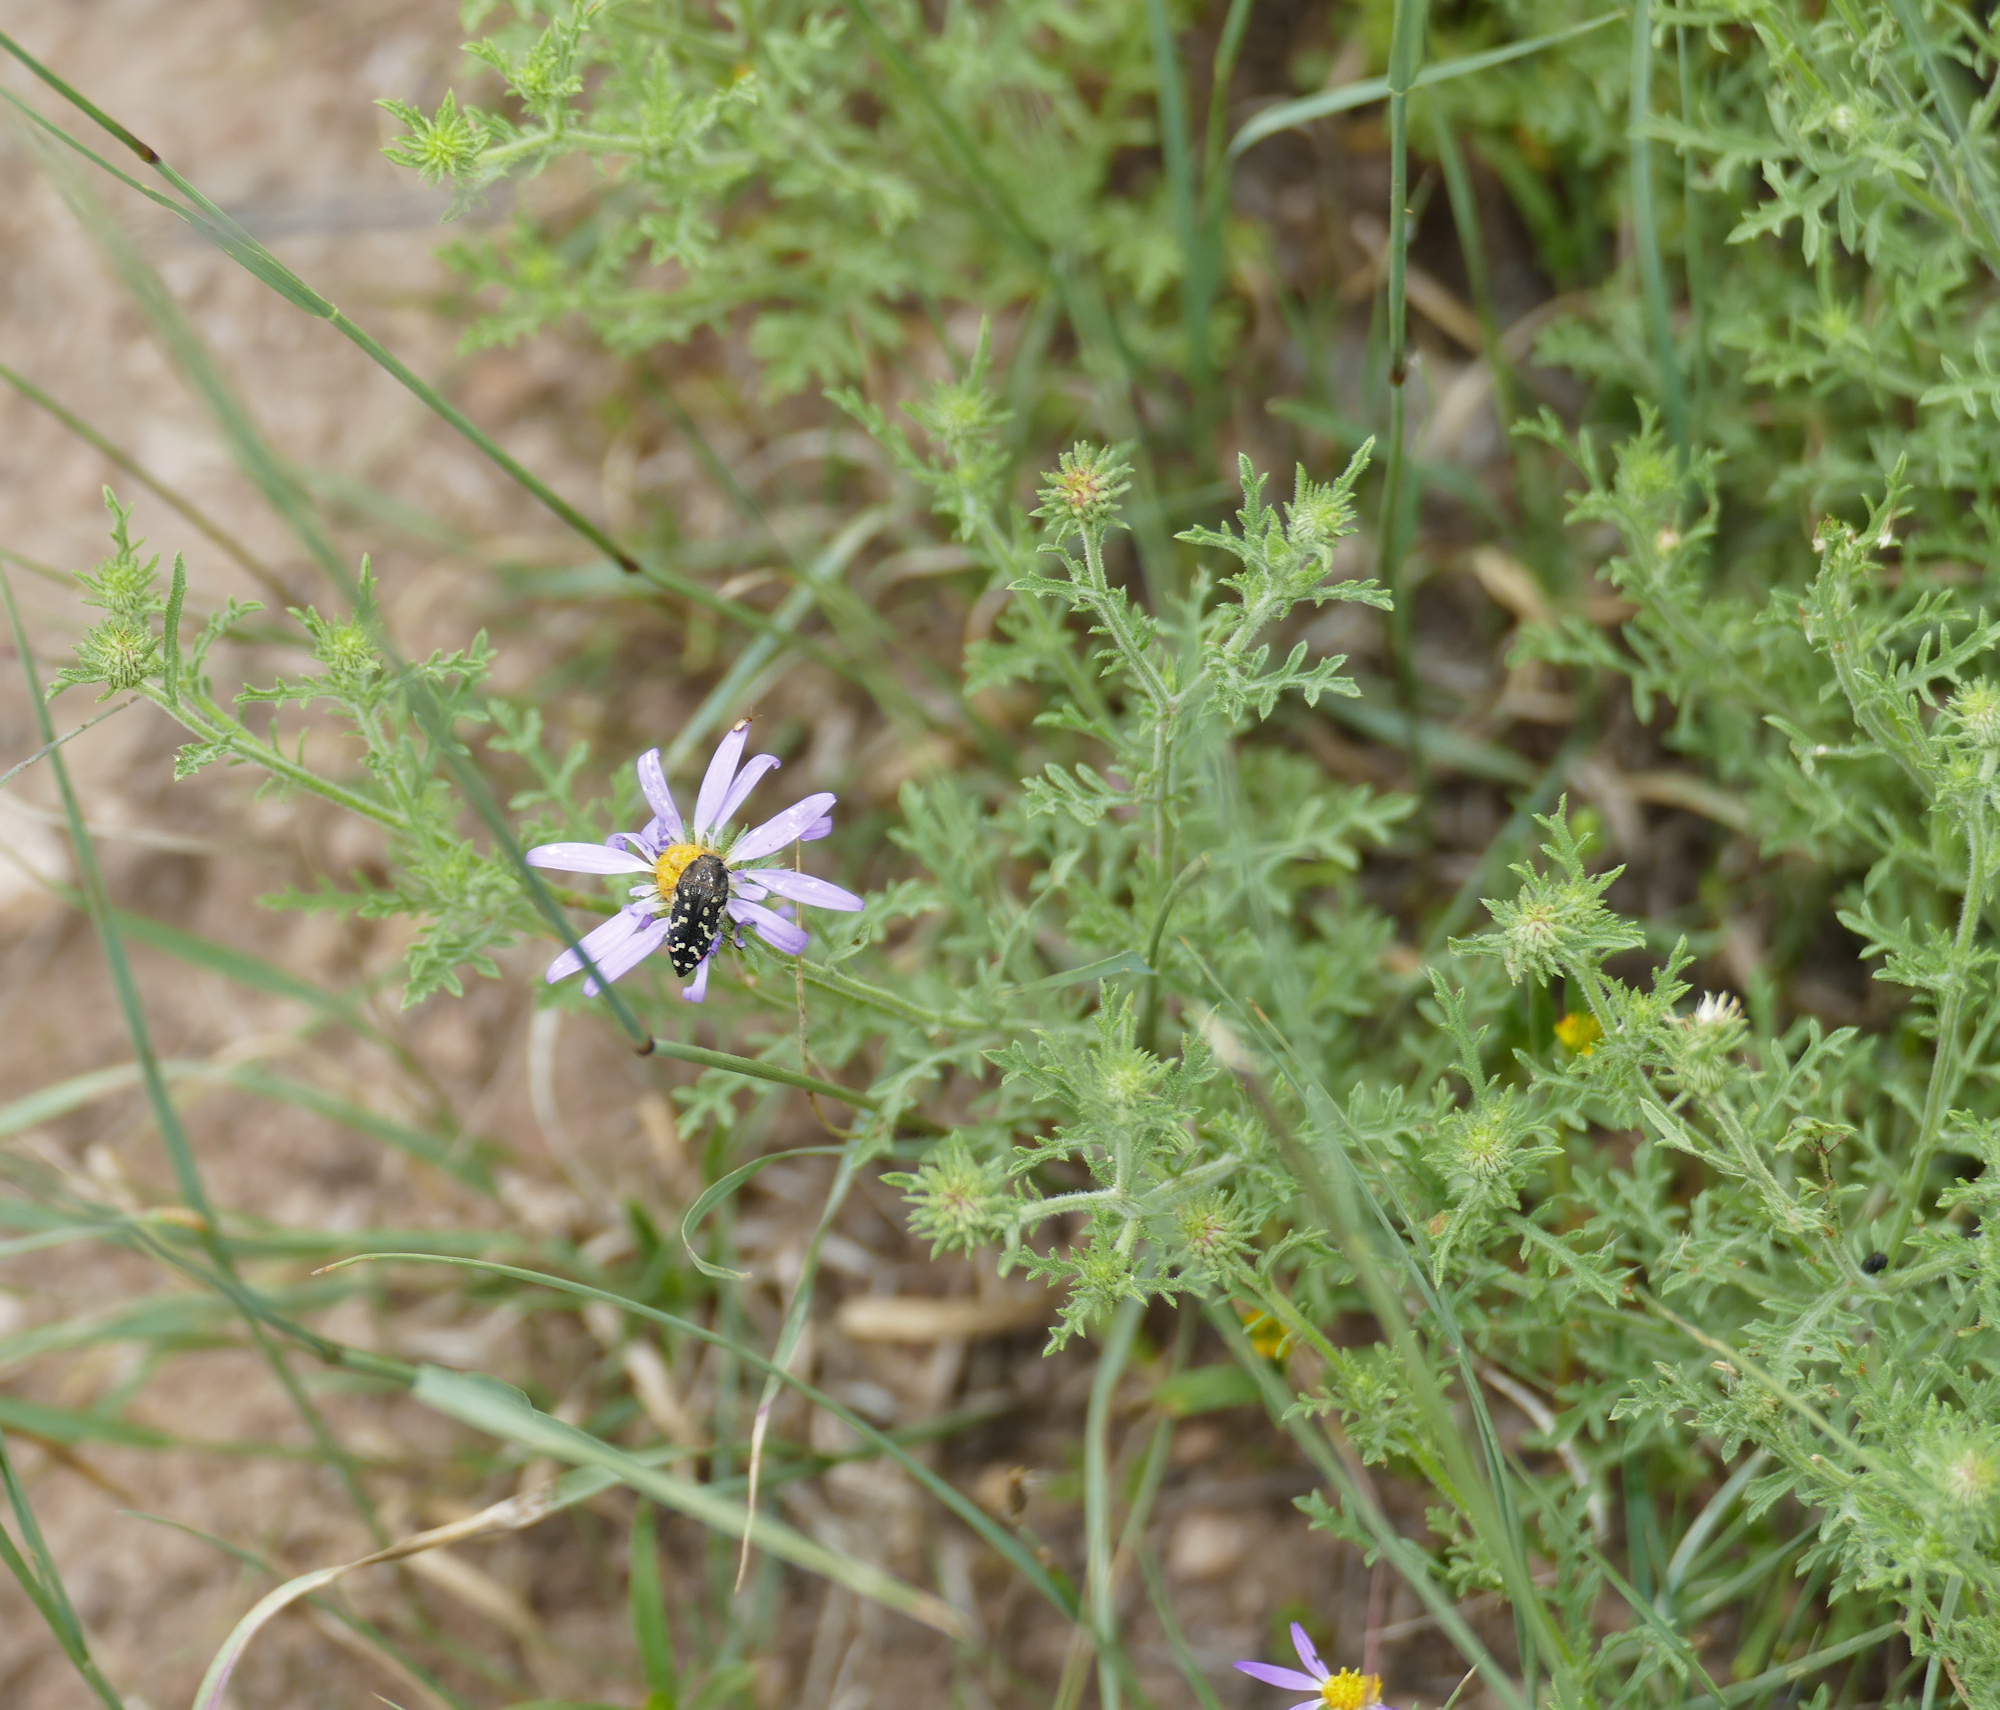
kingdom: Plantae
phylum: Tracheophyta
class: Magnoliopsida
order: Asterales
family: Asteraceae
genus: Machaeranthera
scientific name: Machaeranthera tanacetifolia
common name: Tansy-aster
